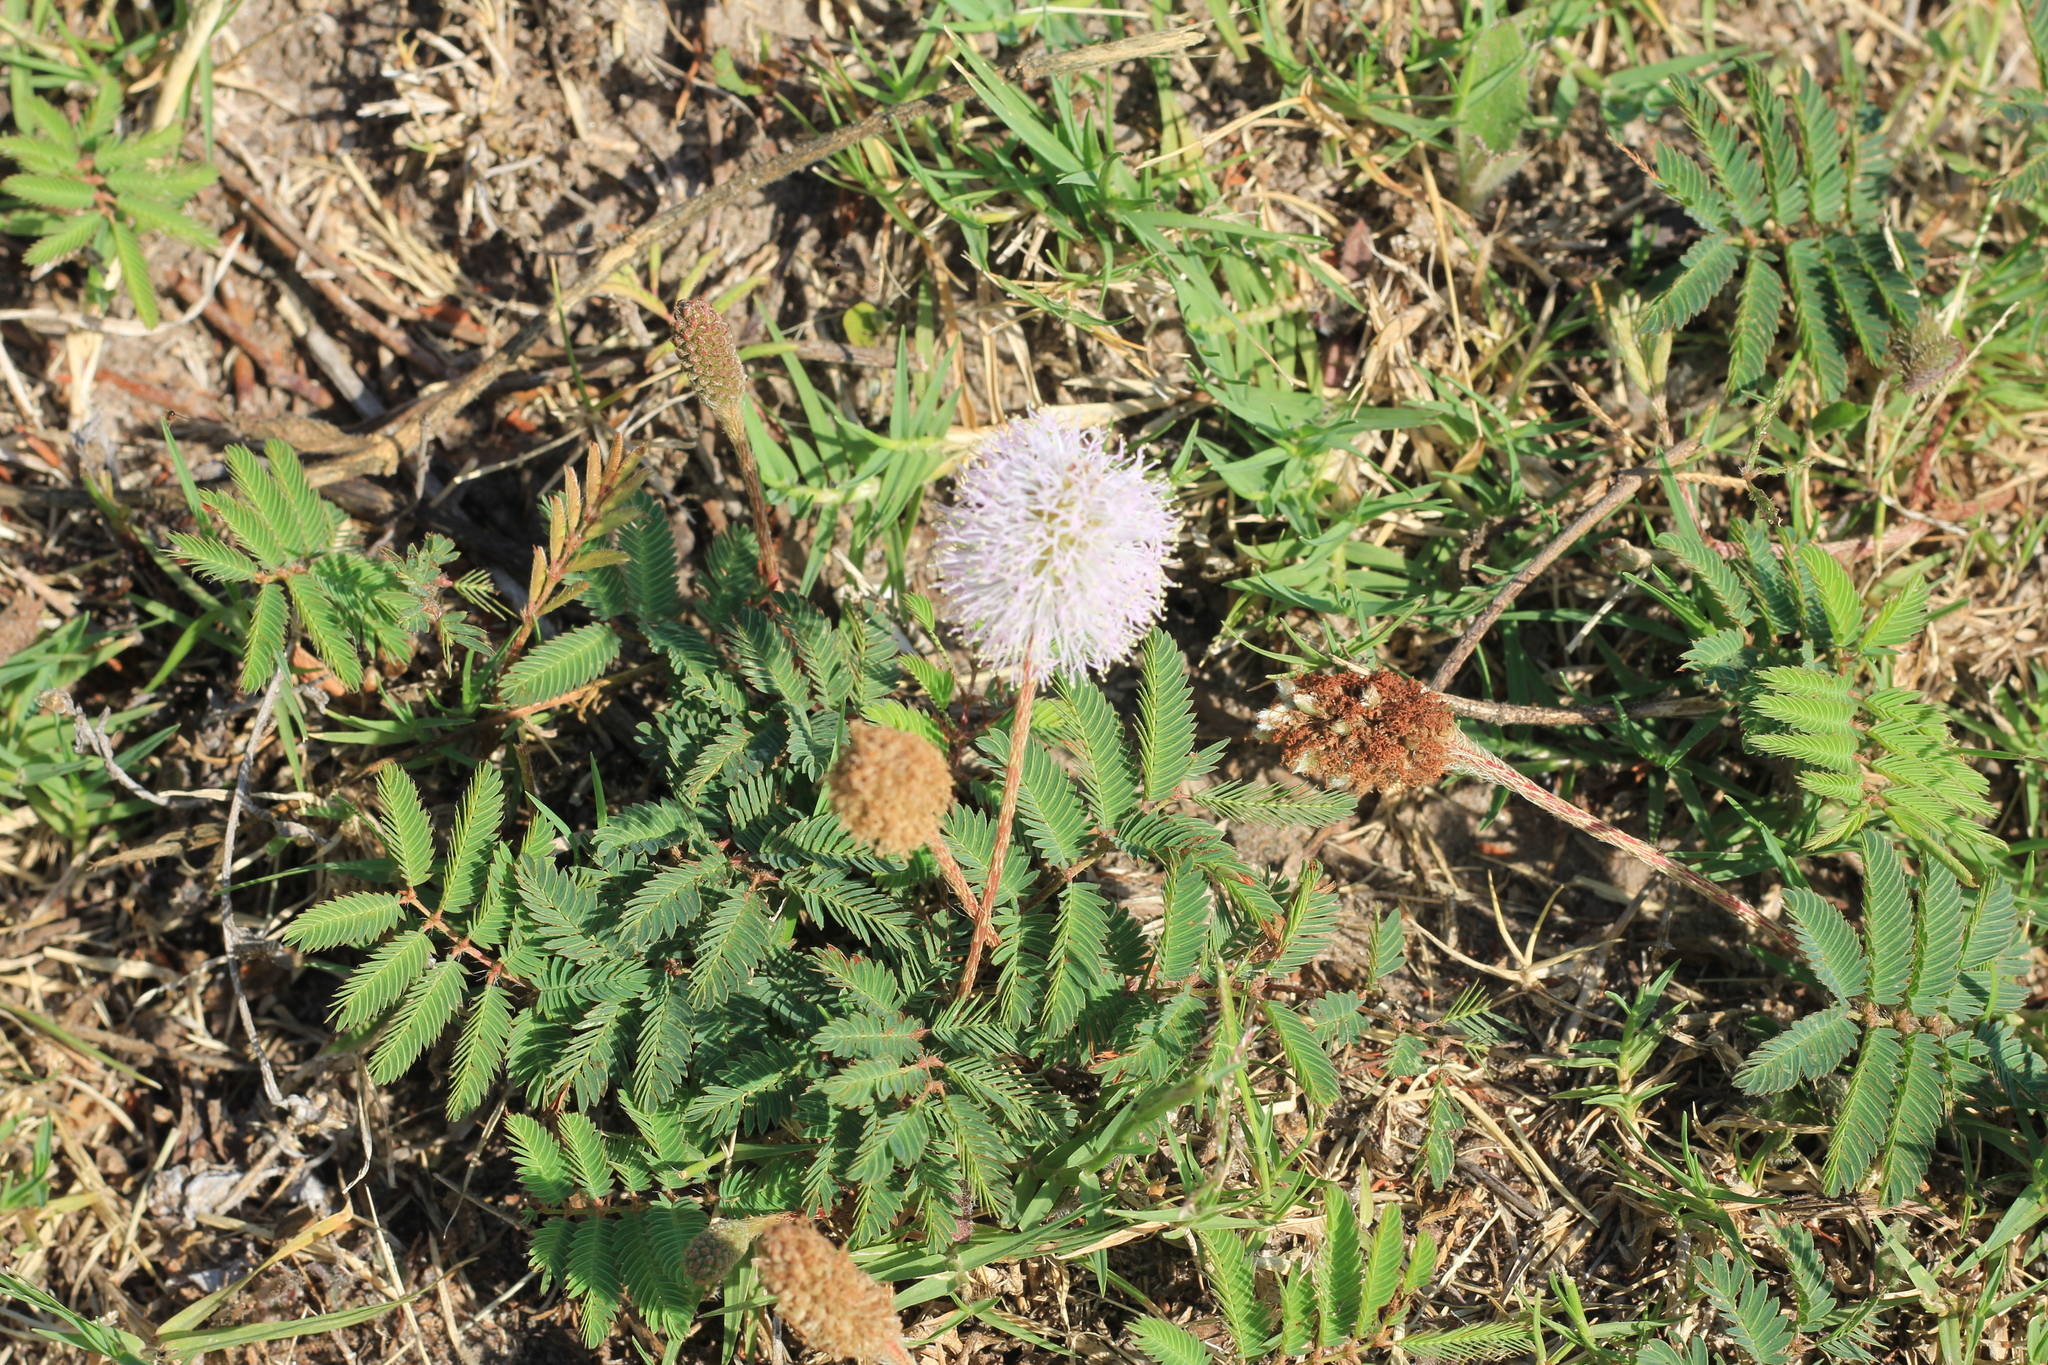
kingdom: Plantae
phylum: Tracheophyta
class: Magnoliopsida
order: Fabales
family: Fabaceae
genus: Mimosa
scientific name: Mimosa strigillosa
